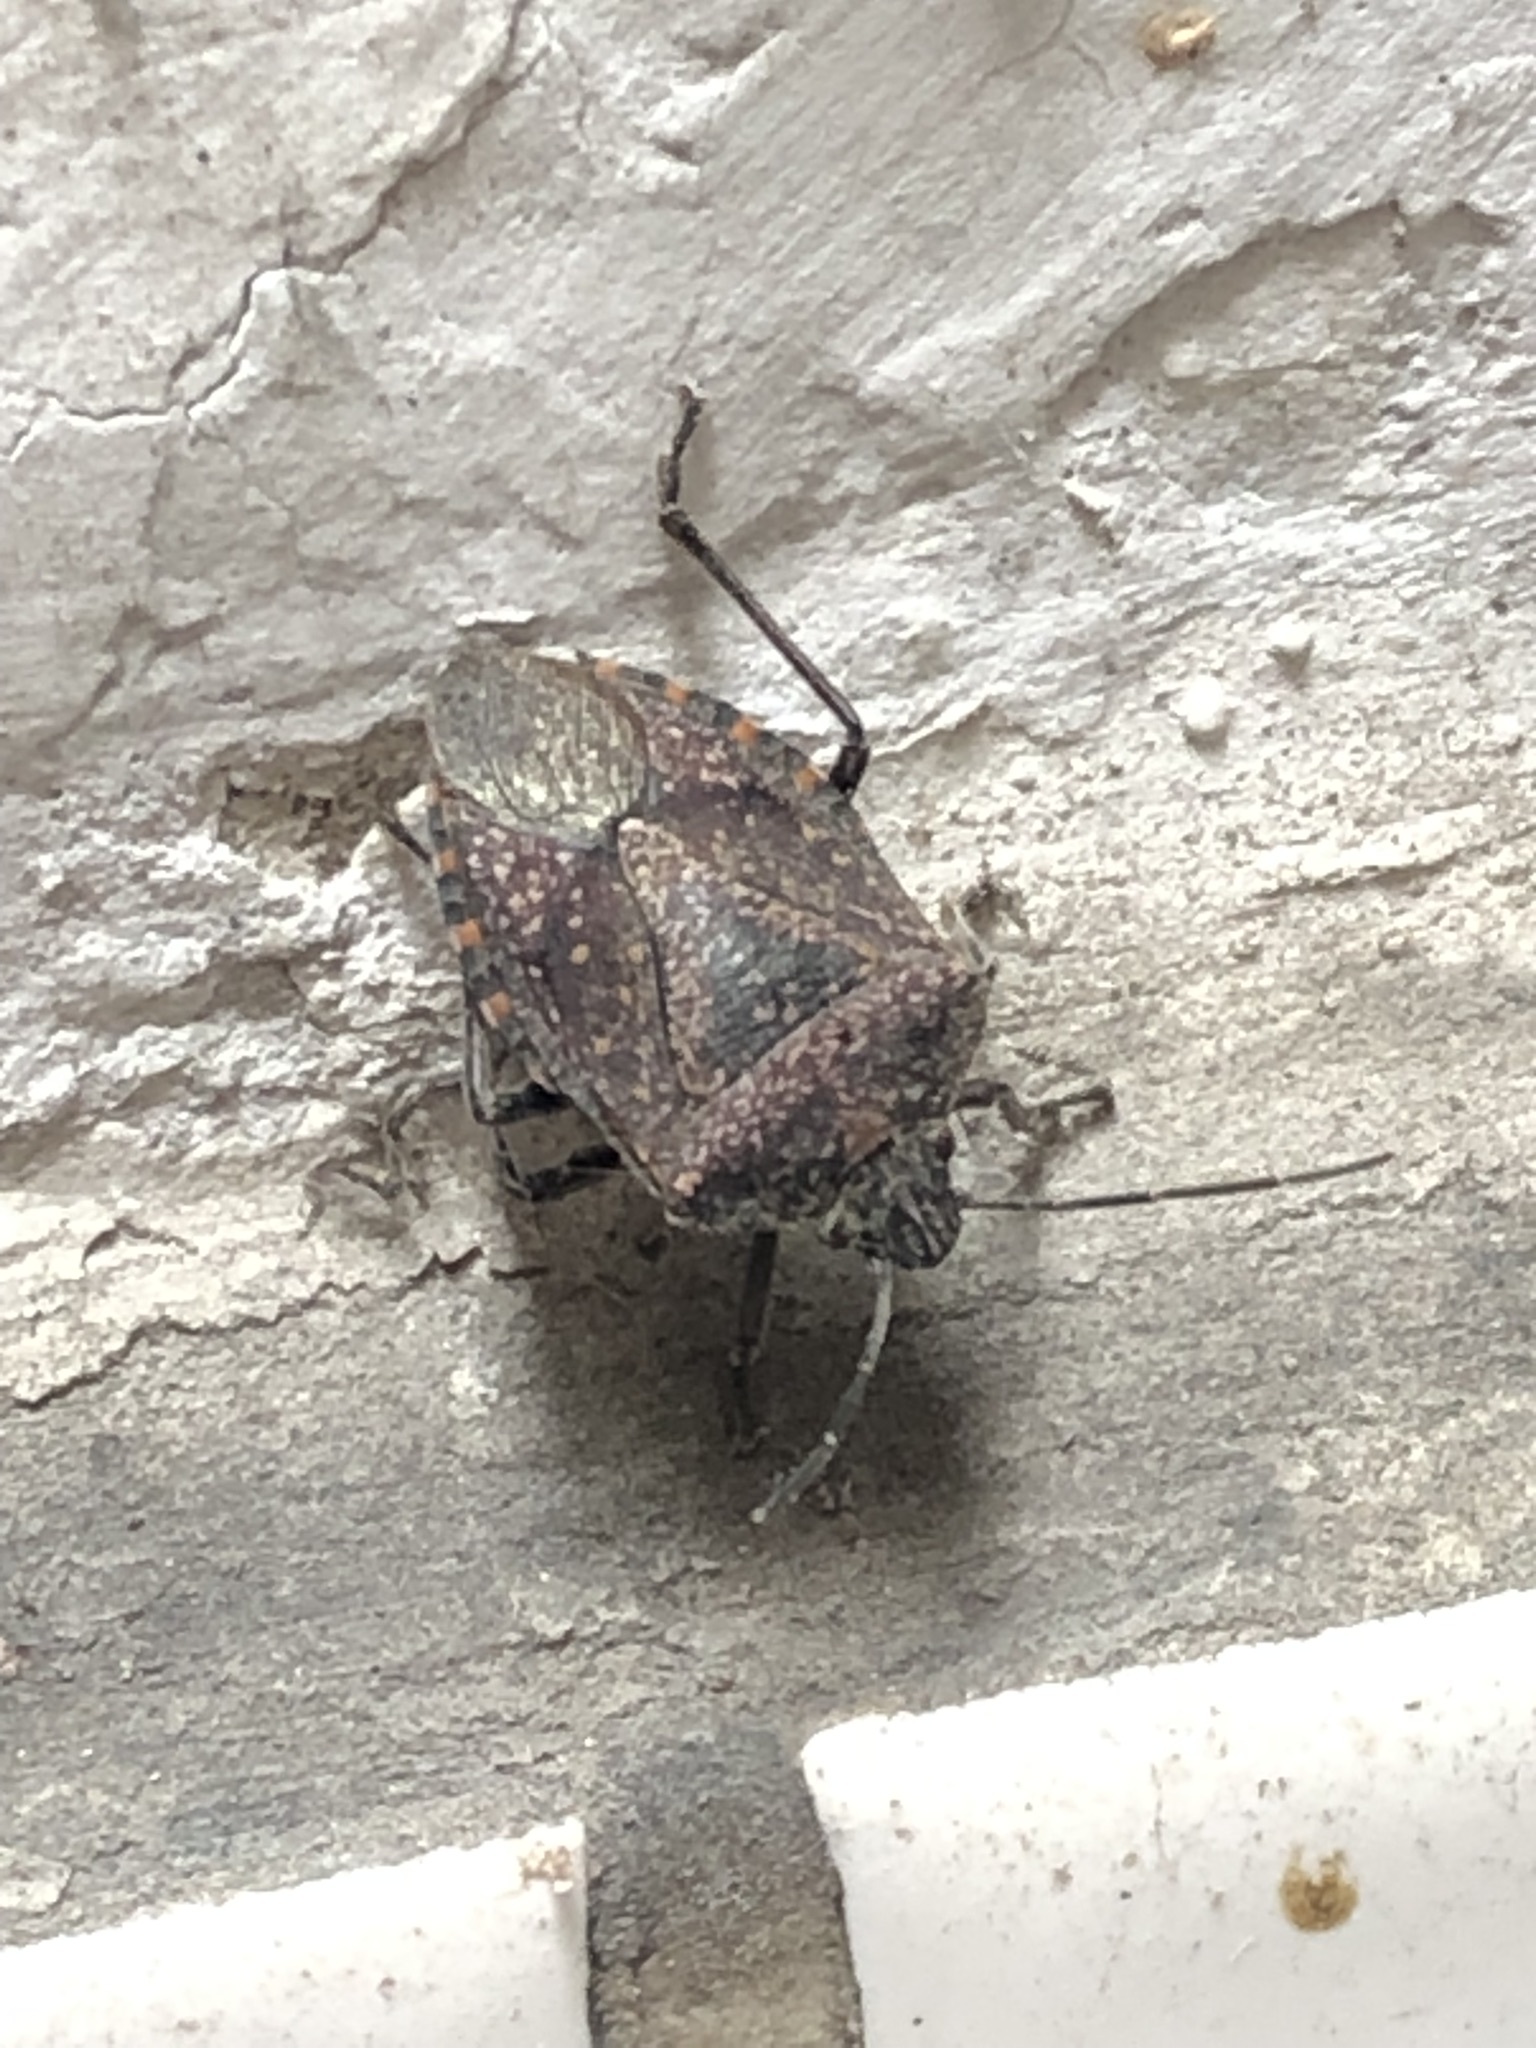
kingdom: Animalia
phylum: Arthropoda
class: Insecta
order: Hemiptera
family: Pentatomidae
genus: Pellaea
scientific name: Pellaea stictica
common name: Stink bug
